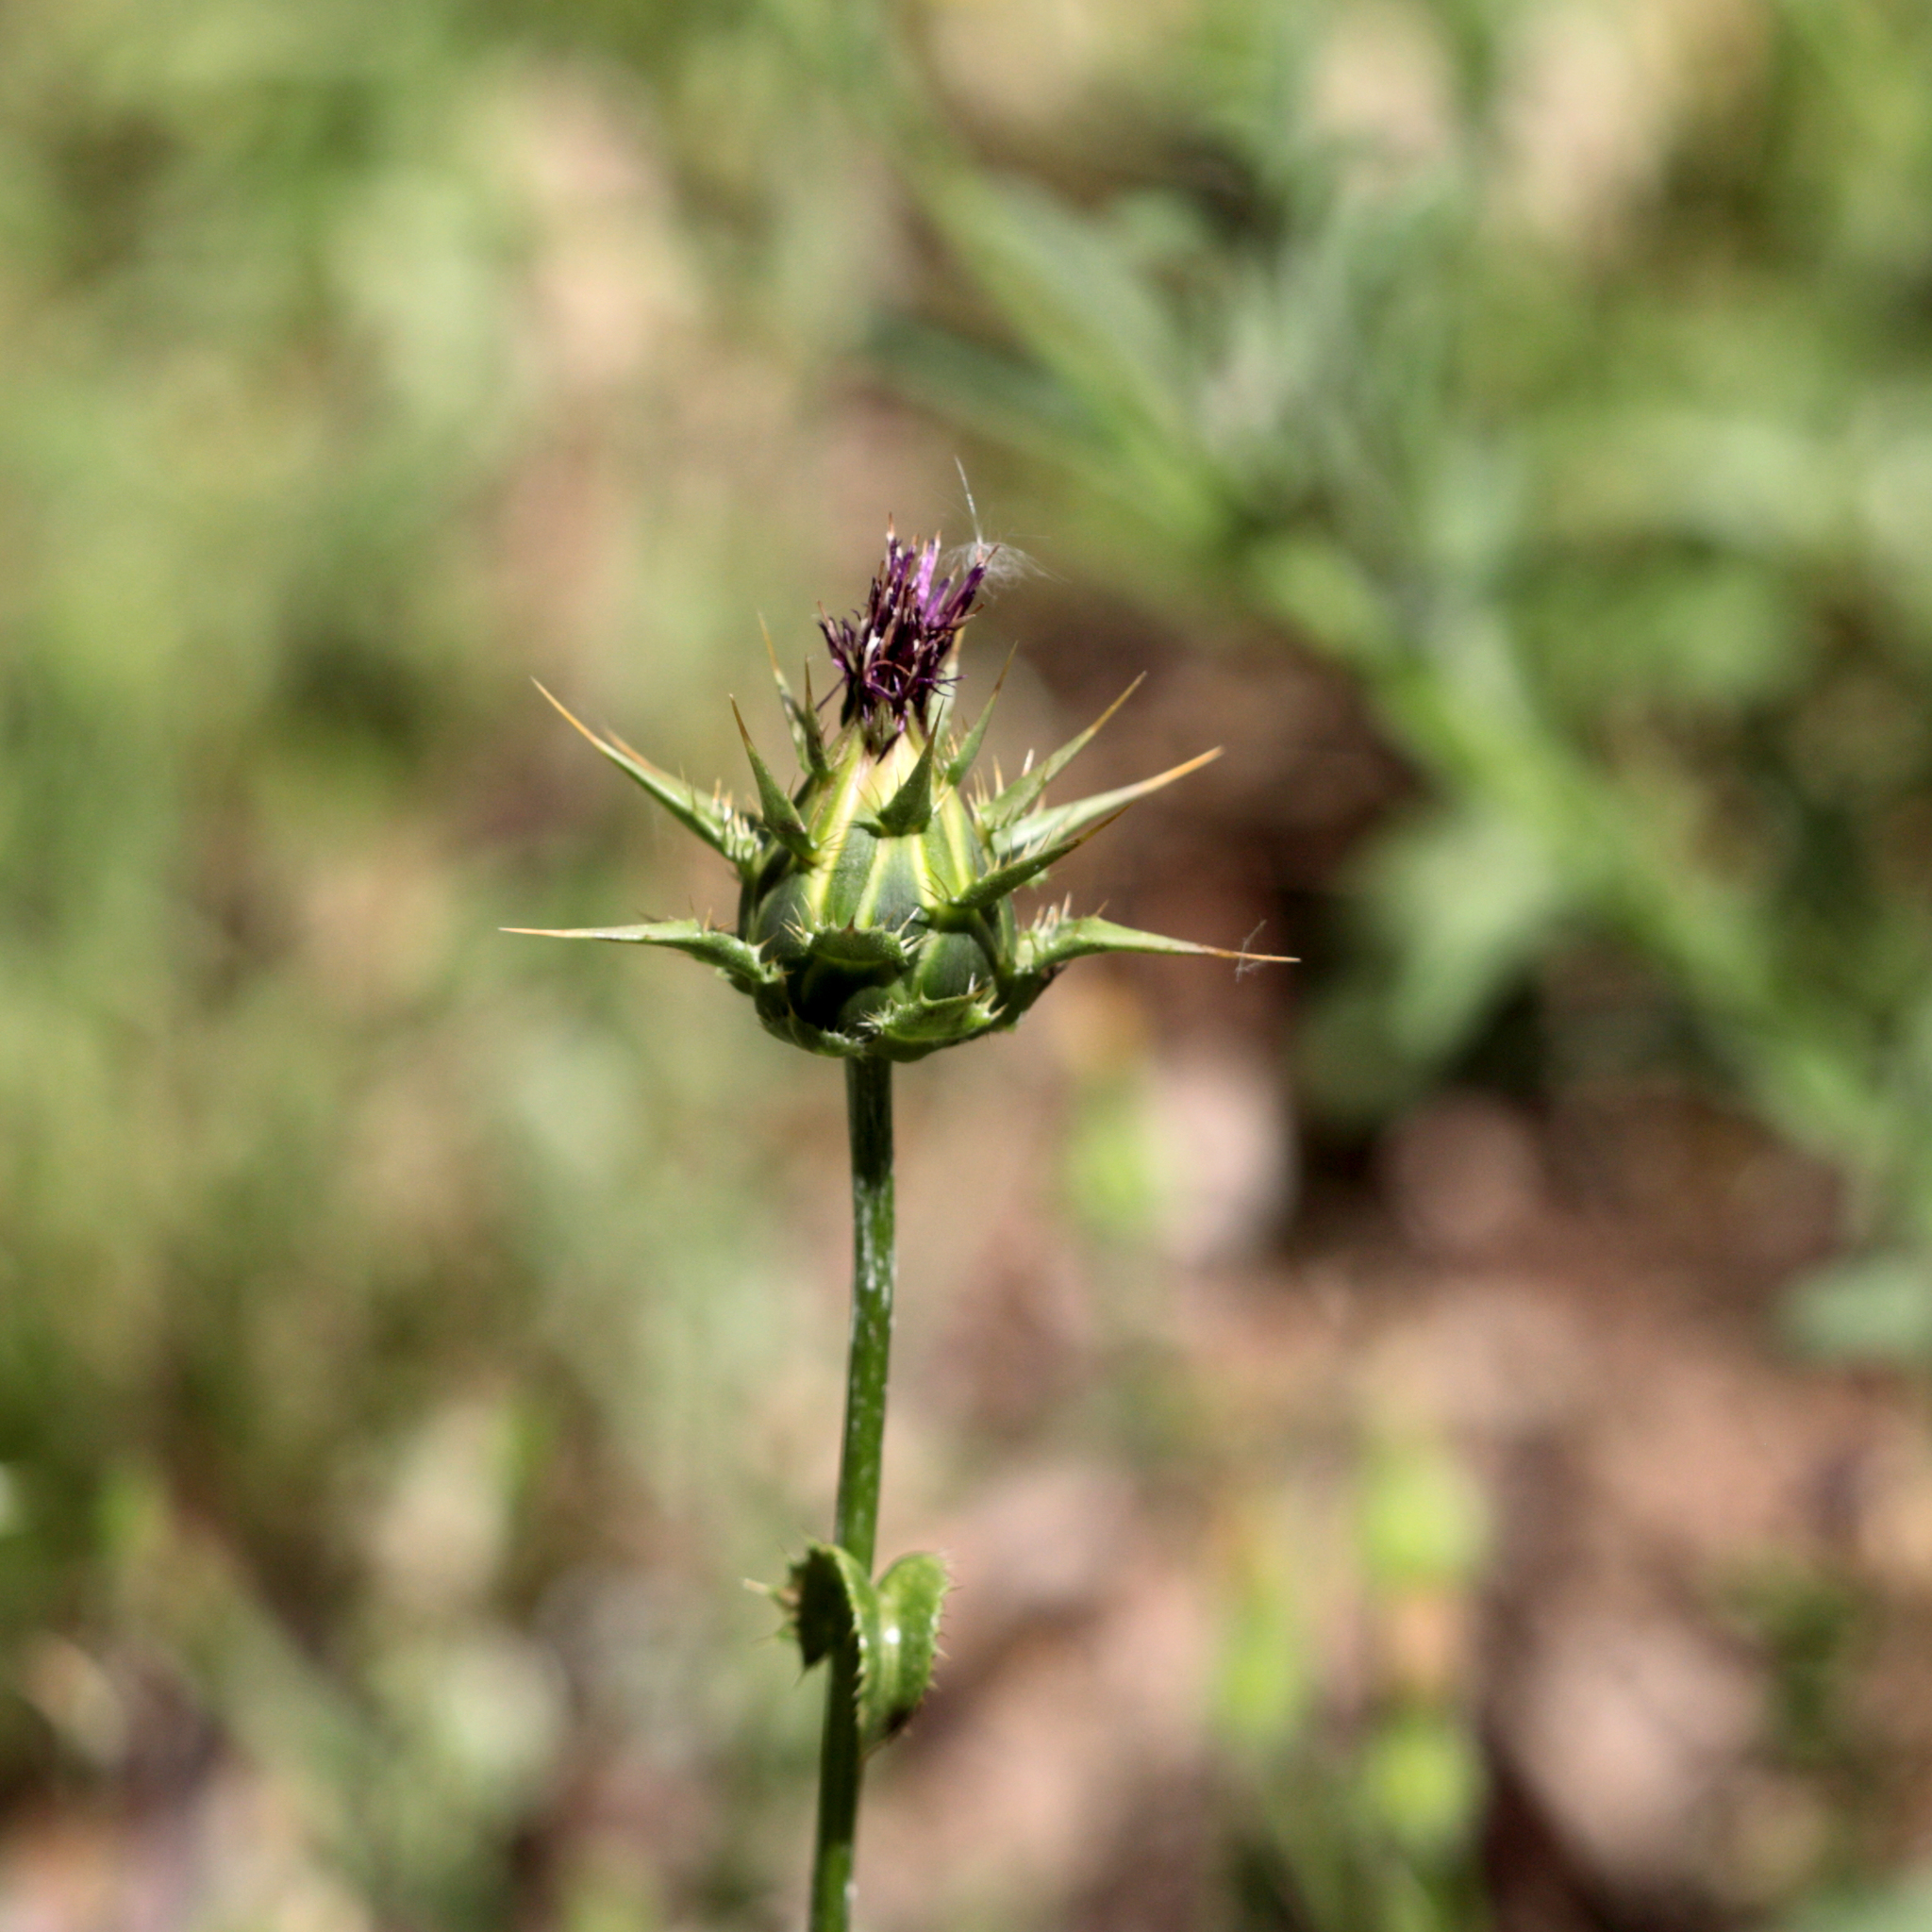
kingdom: Plantae
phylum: Tracheophyta
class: Magnoliopsida
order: Asterales
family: Asteraceae
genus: Silybum
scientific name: Silybum marianum
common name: Milk thistle
